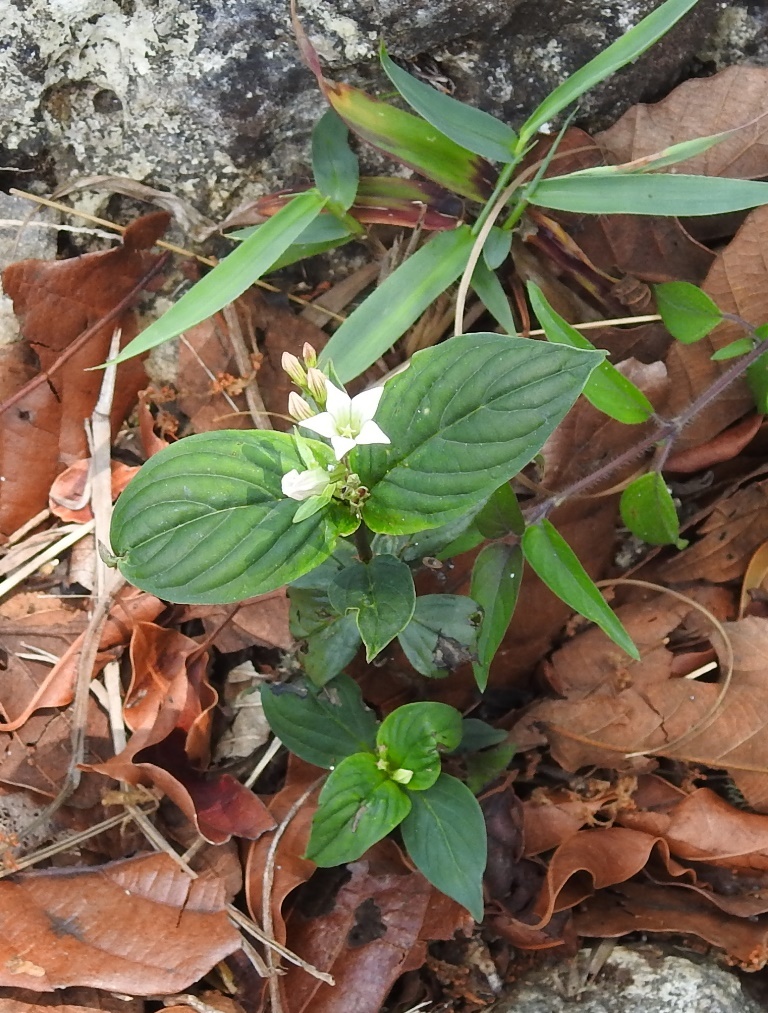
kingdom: Plantae
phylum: Tracheophyta
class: Magnoliopsida
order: Gentianales
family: Loganiaceae
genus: Spigelia
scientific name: Spigelia humboldtiana
